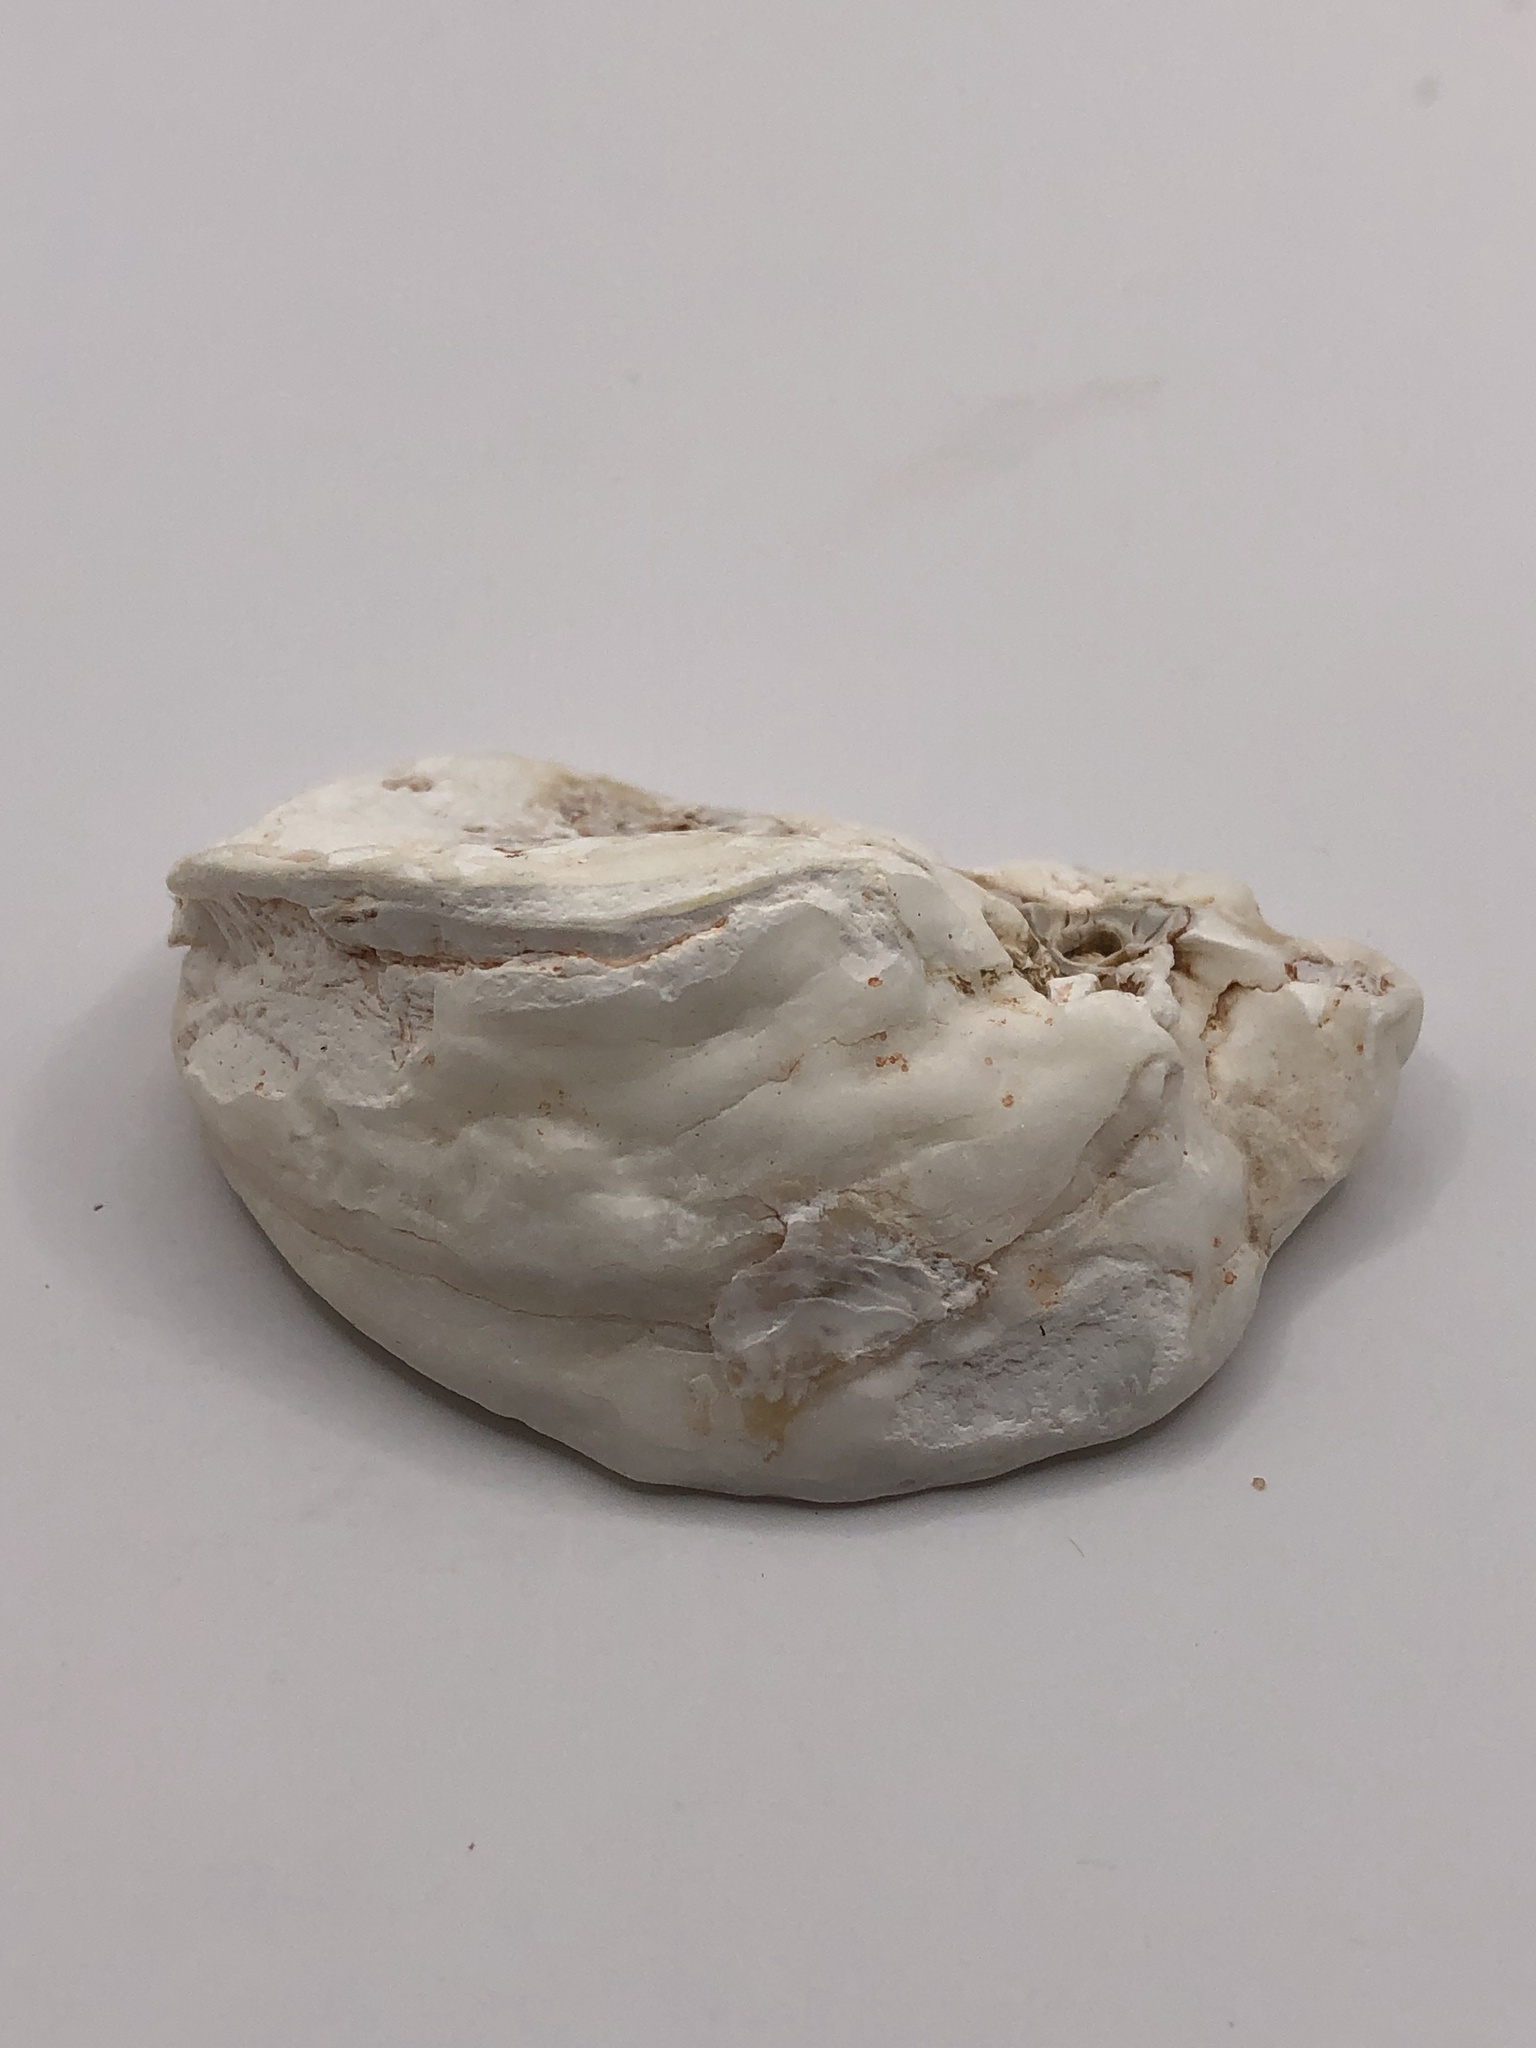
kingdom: Animalia
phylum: Mollusca
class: Bivalvia
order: Ostreida
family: Ostreidae
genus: Crassostrea
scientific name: Crassostrea virginica
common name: American oyster
